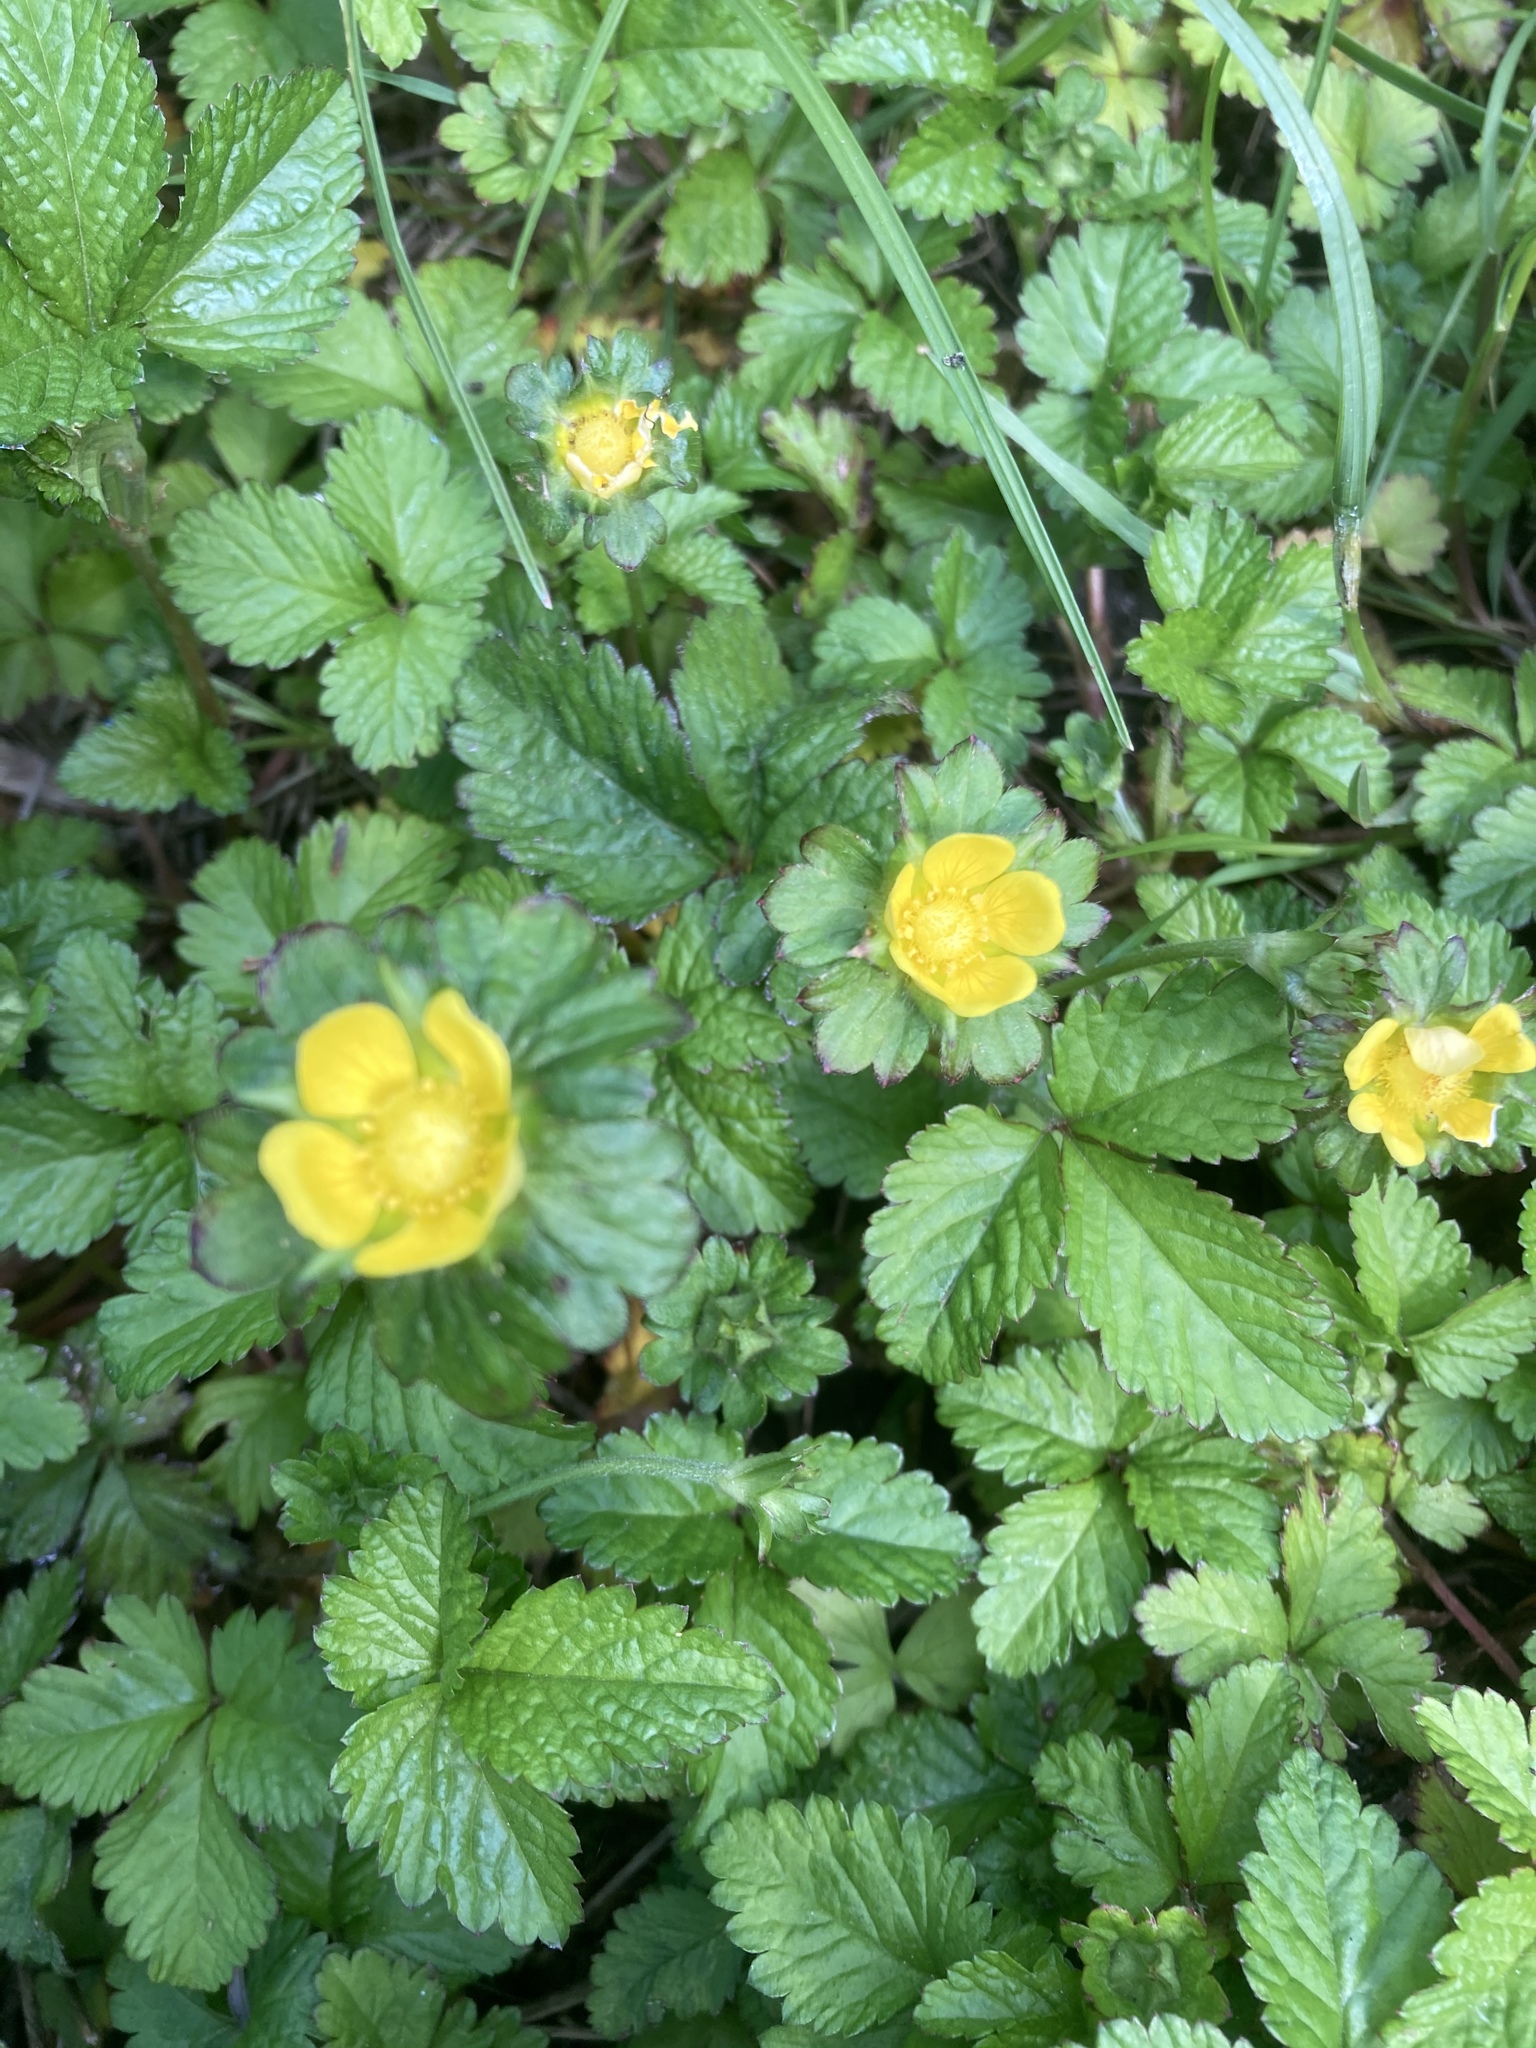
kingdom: Plantae
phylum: Tracheophyta
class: Magnoliopsida
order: Rosales
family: Rosaceae
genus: Potentilla
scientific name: Potentilla indica
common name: Yellow-flowered strawberry
